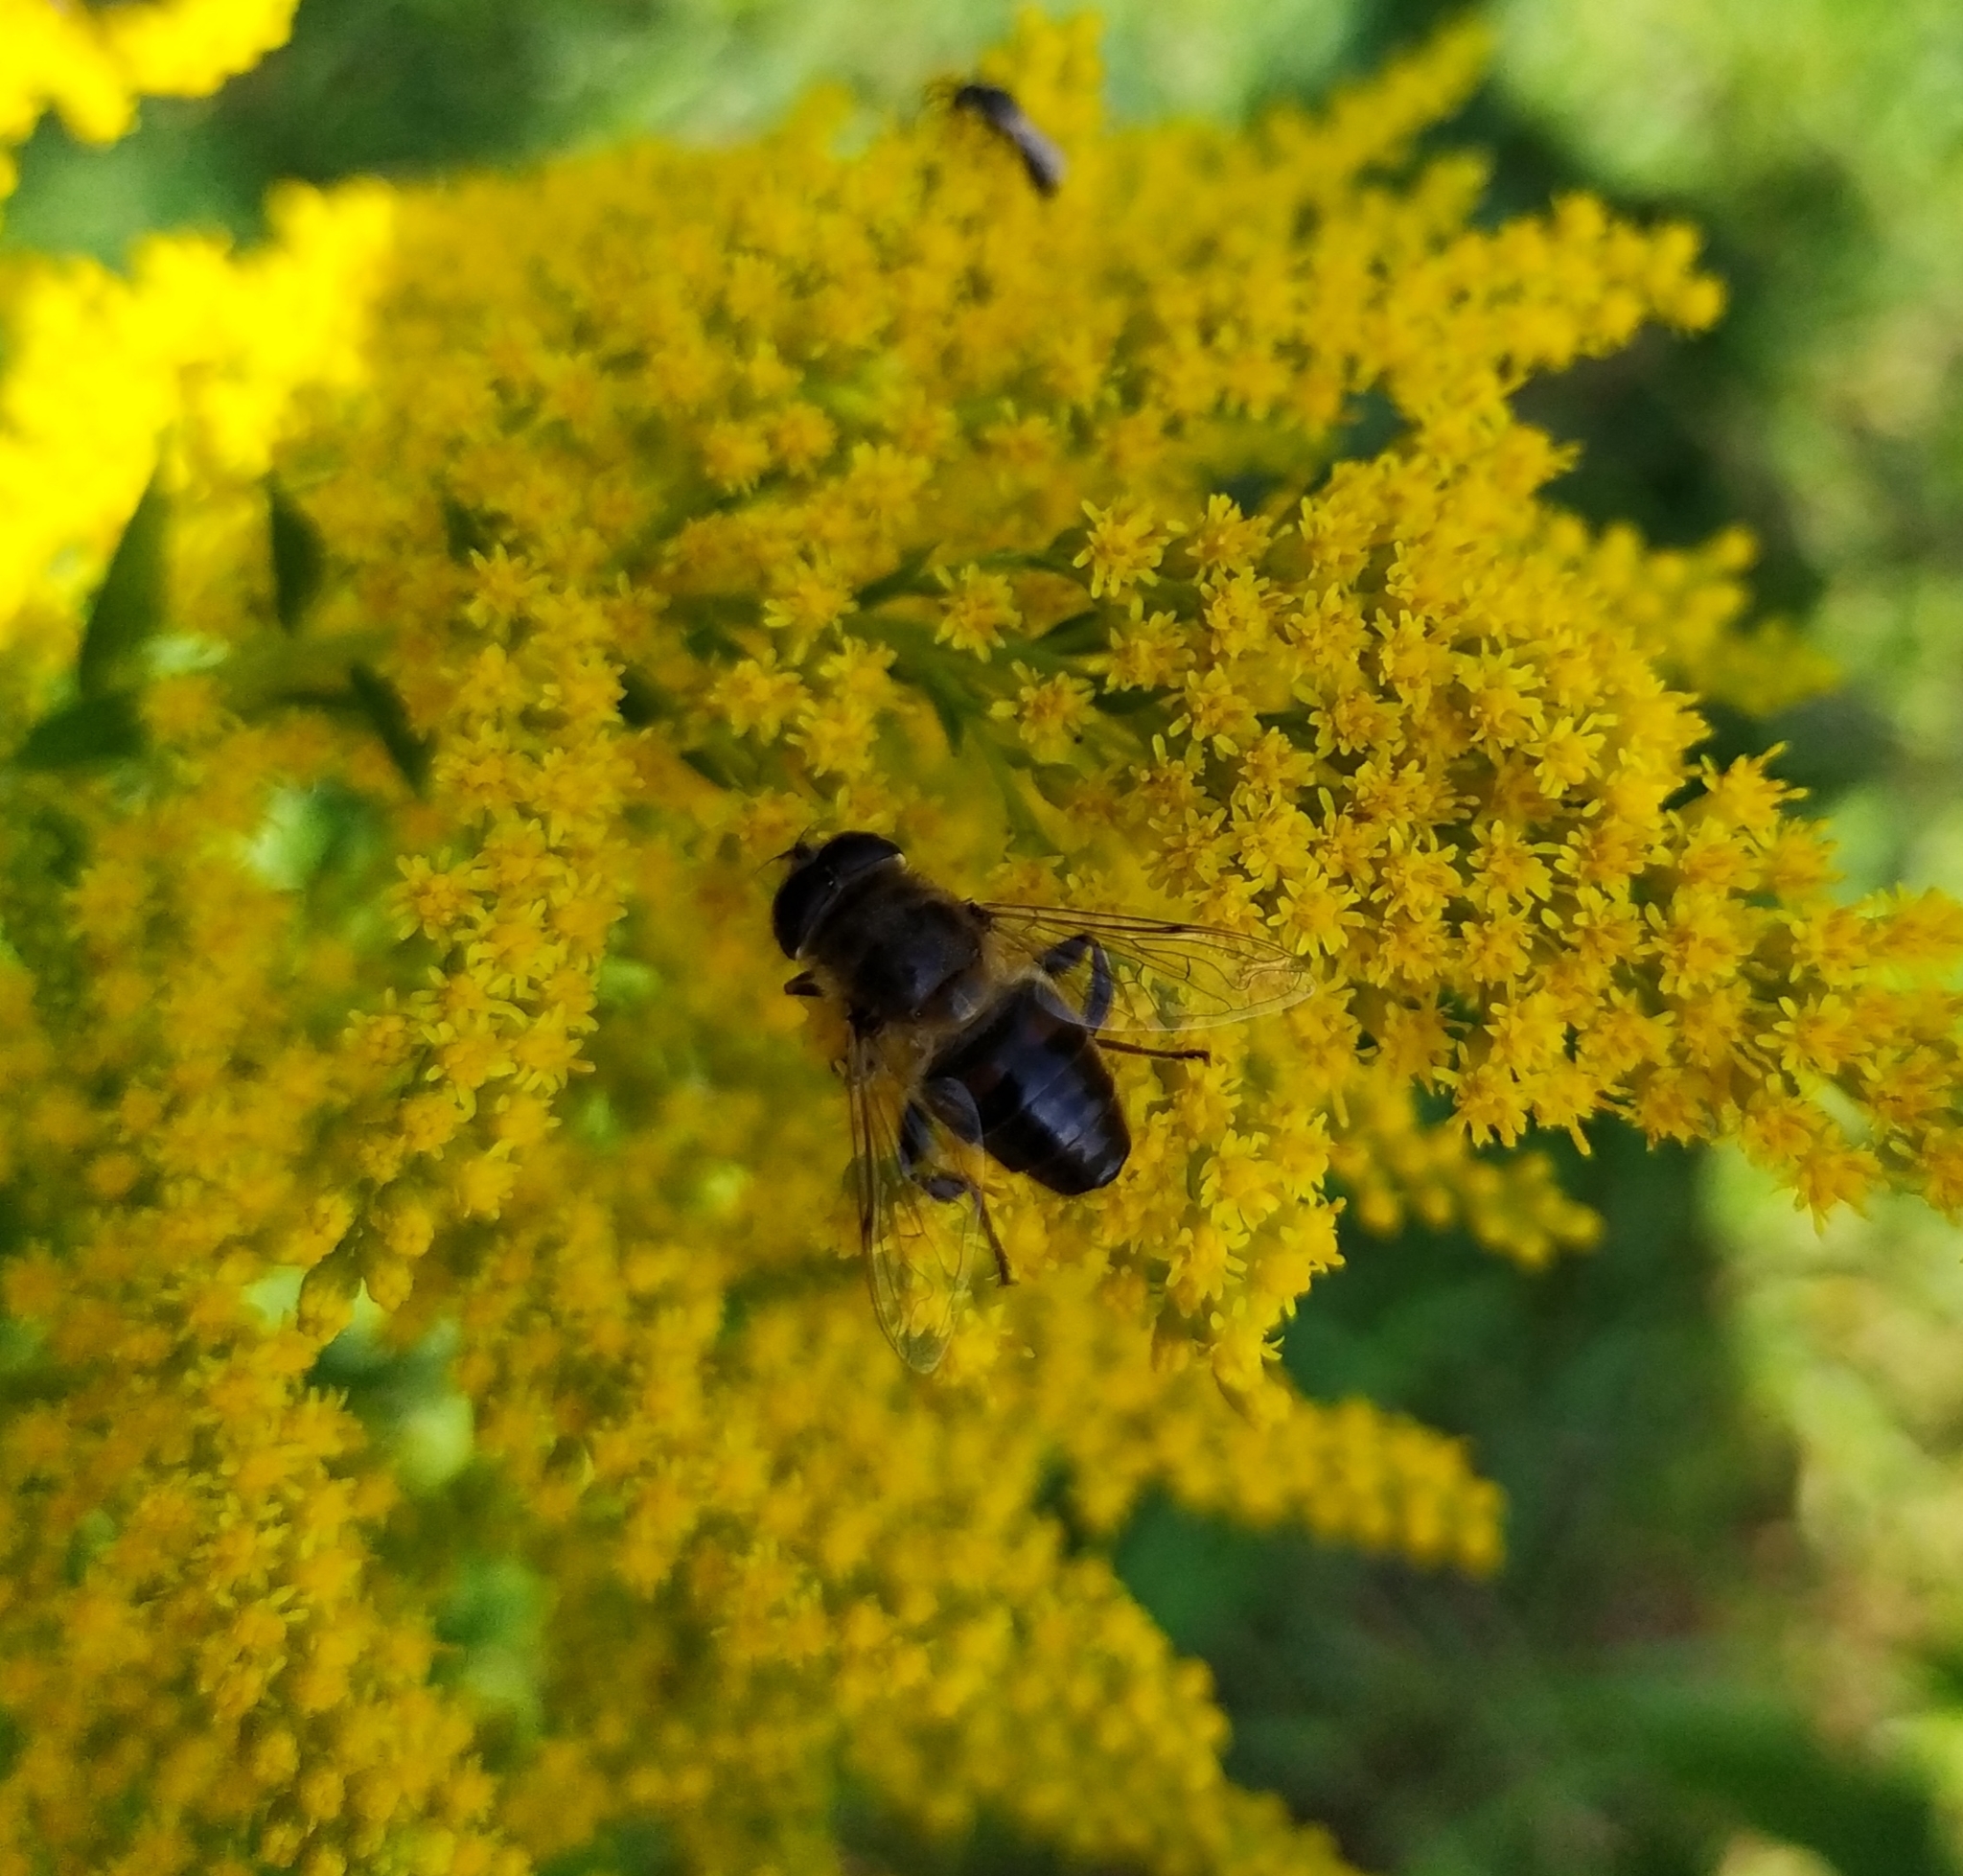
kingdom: Animalia
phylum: Arthropoda
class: Insecta
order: Diptera
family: Syrphidae
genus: Eristalis
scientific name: Eristalis tenax
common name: Drone fly
